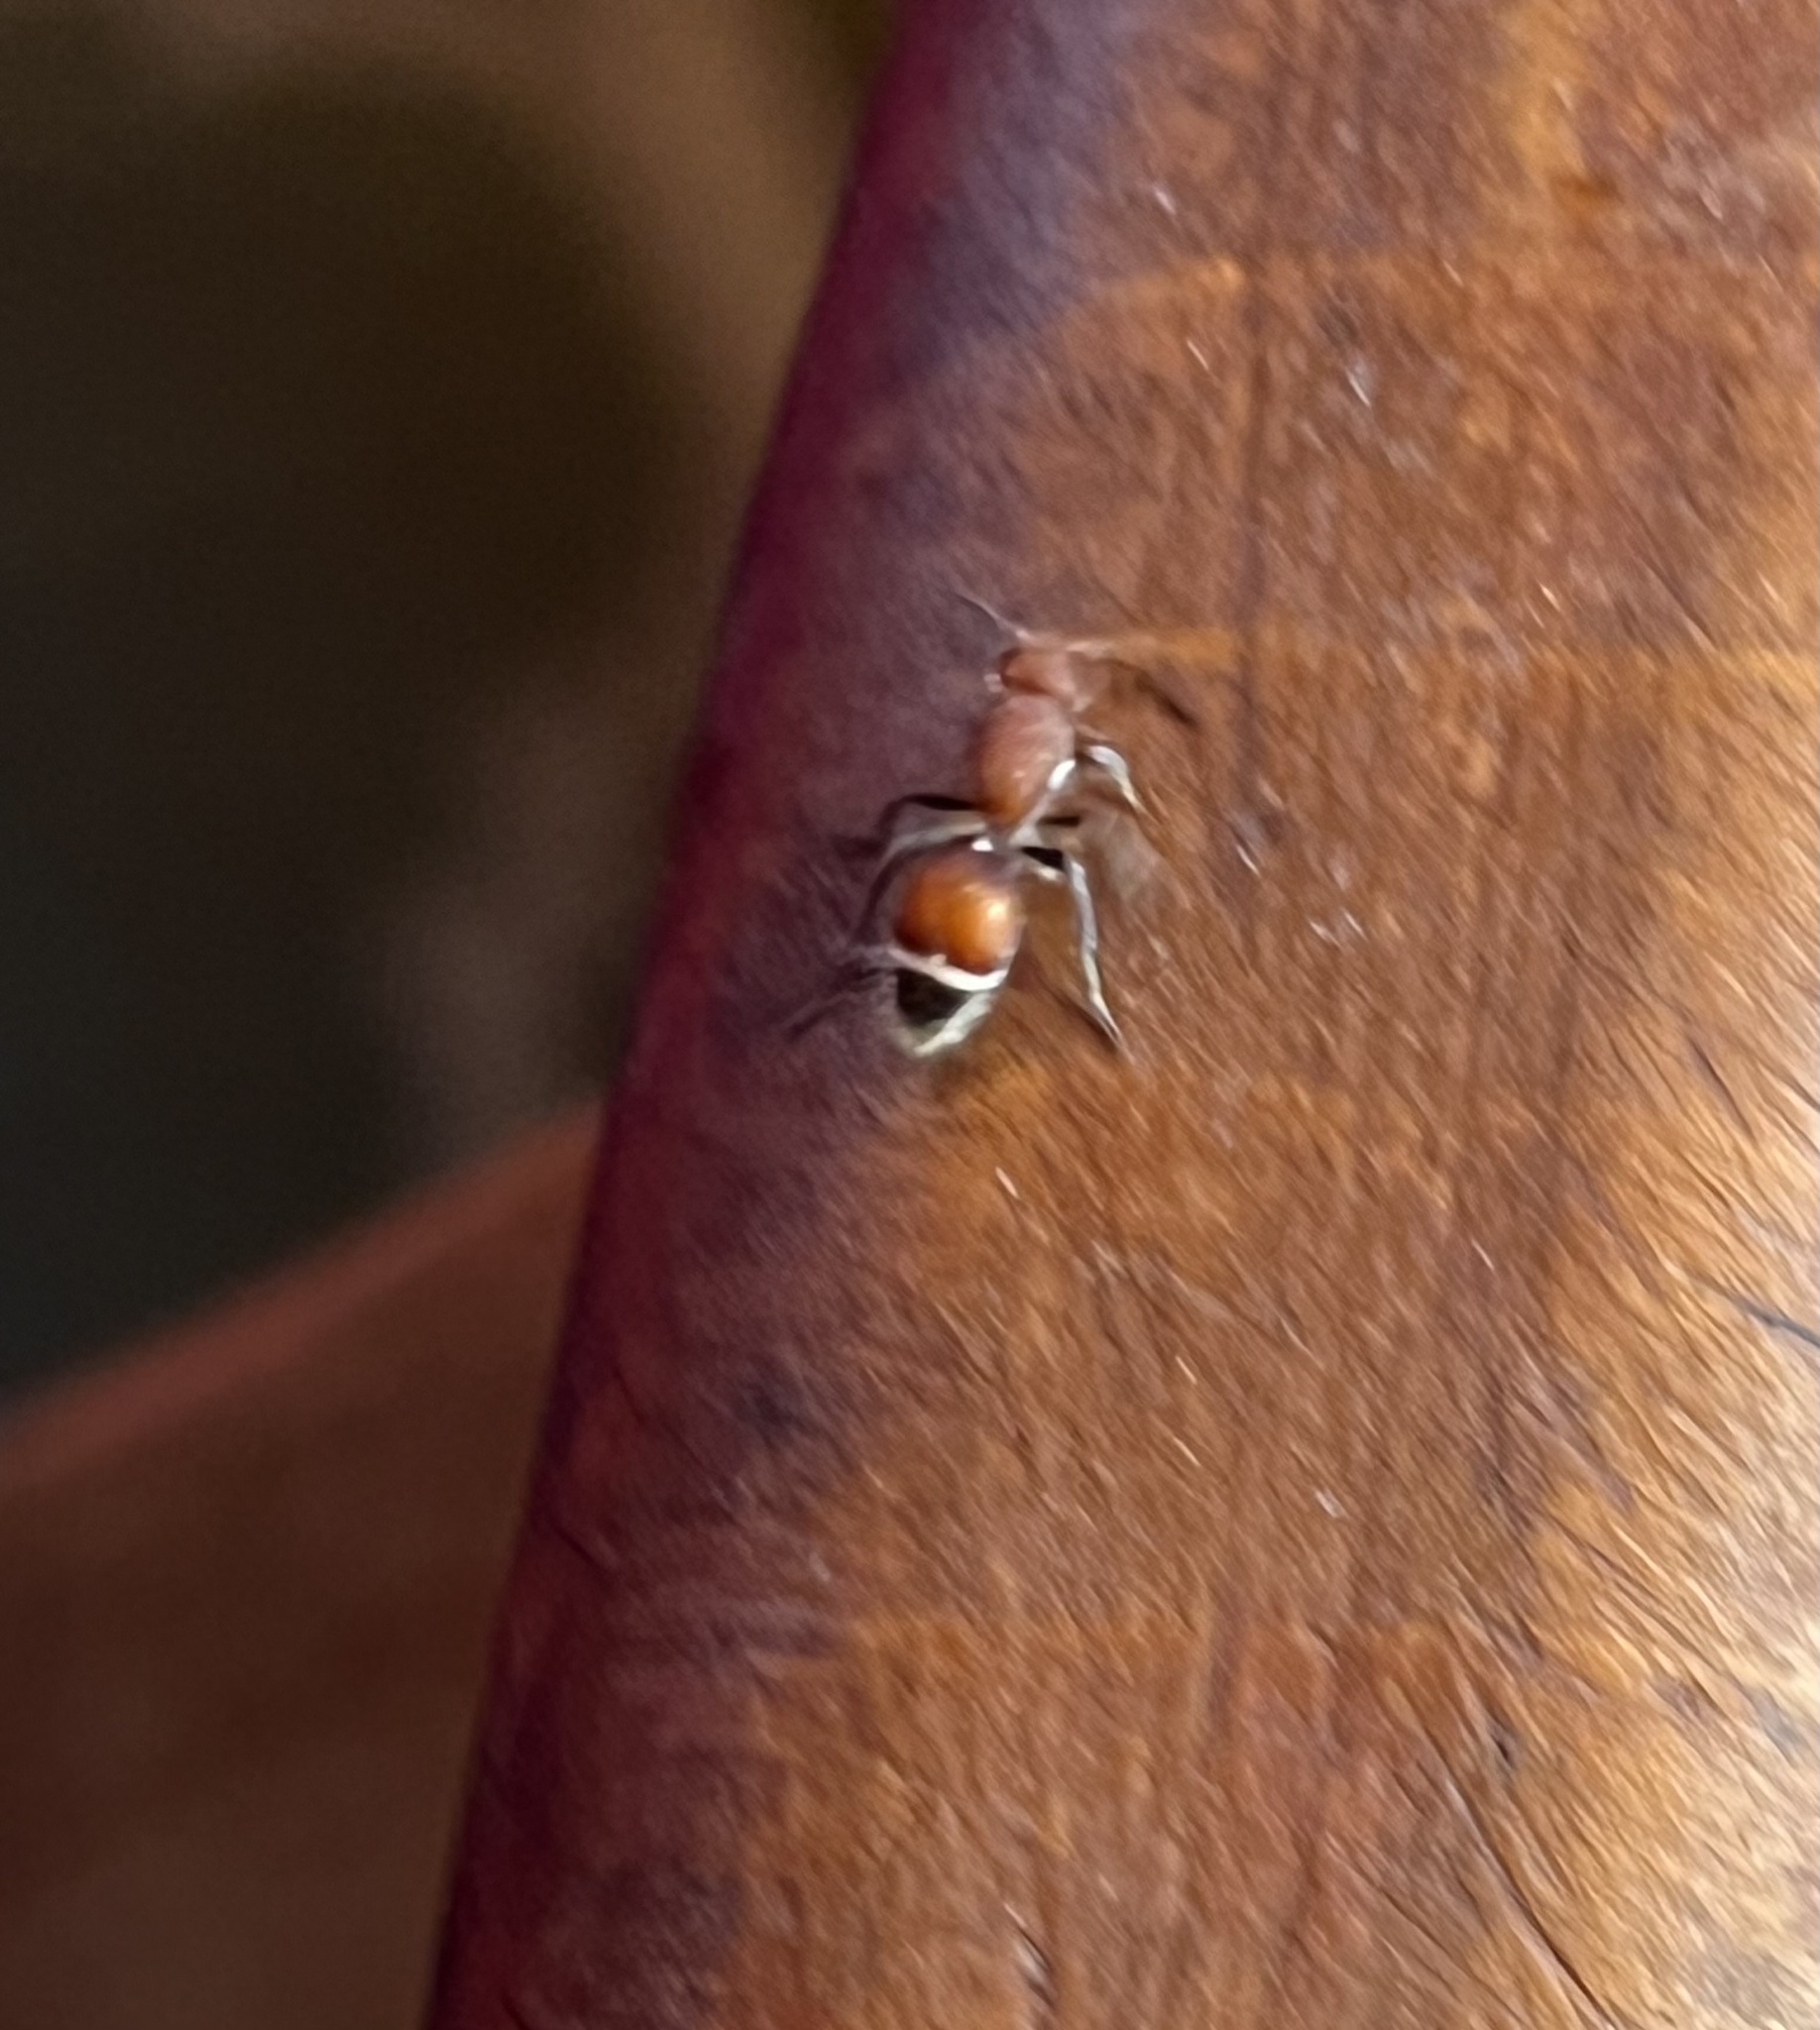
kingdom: Animalia
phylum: Arthropoda
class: Insecta
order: Hymenoptera
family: Mutillidae
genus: Sphaeropthalma
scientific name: Sphaeropthalma
